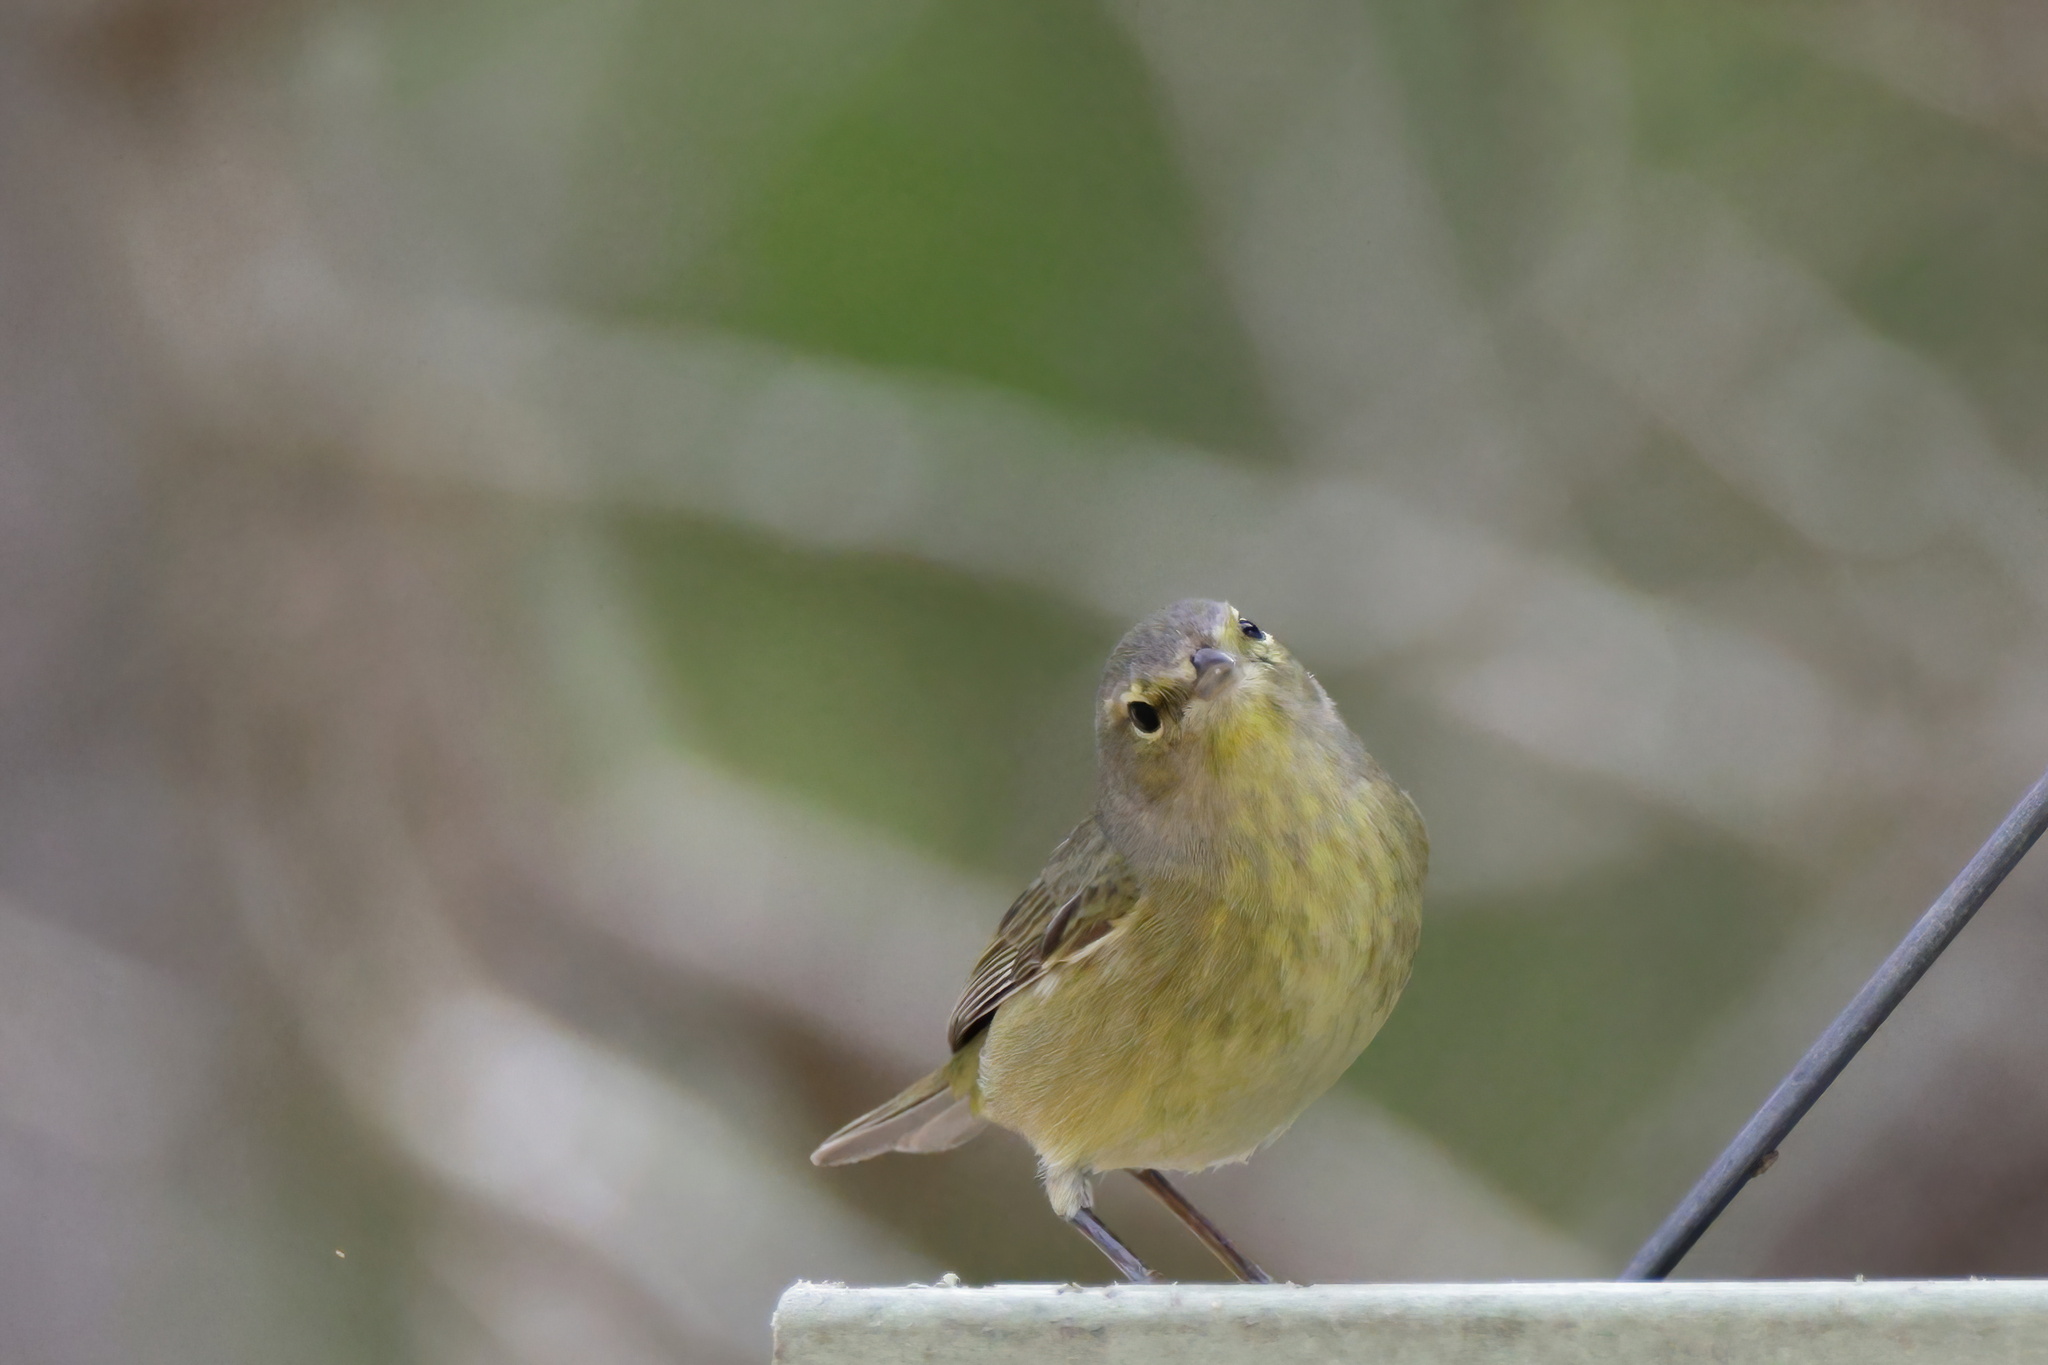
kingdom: Animalia
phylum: Chordata
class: Aves
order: Passeriformes
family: Parulidae
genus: Leiothlypis
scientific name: Leiothlypis celata
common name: Orange-crowned warbler
